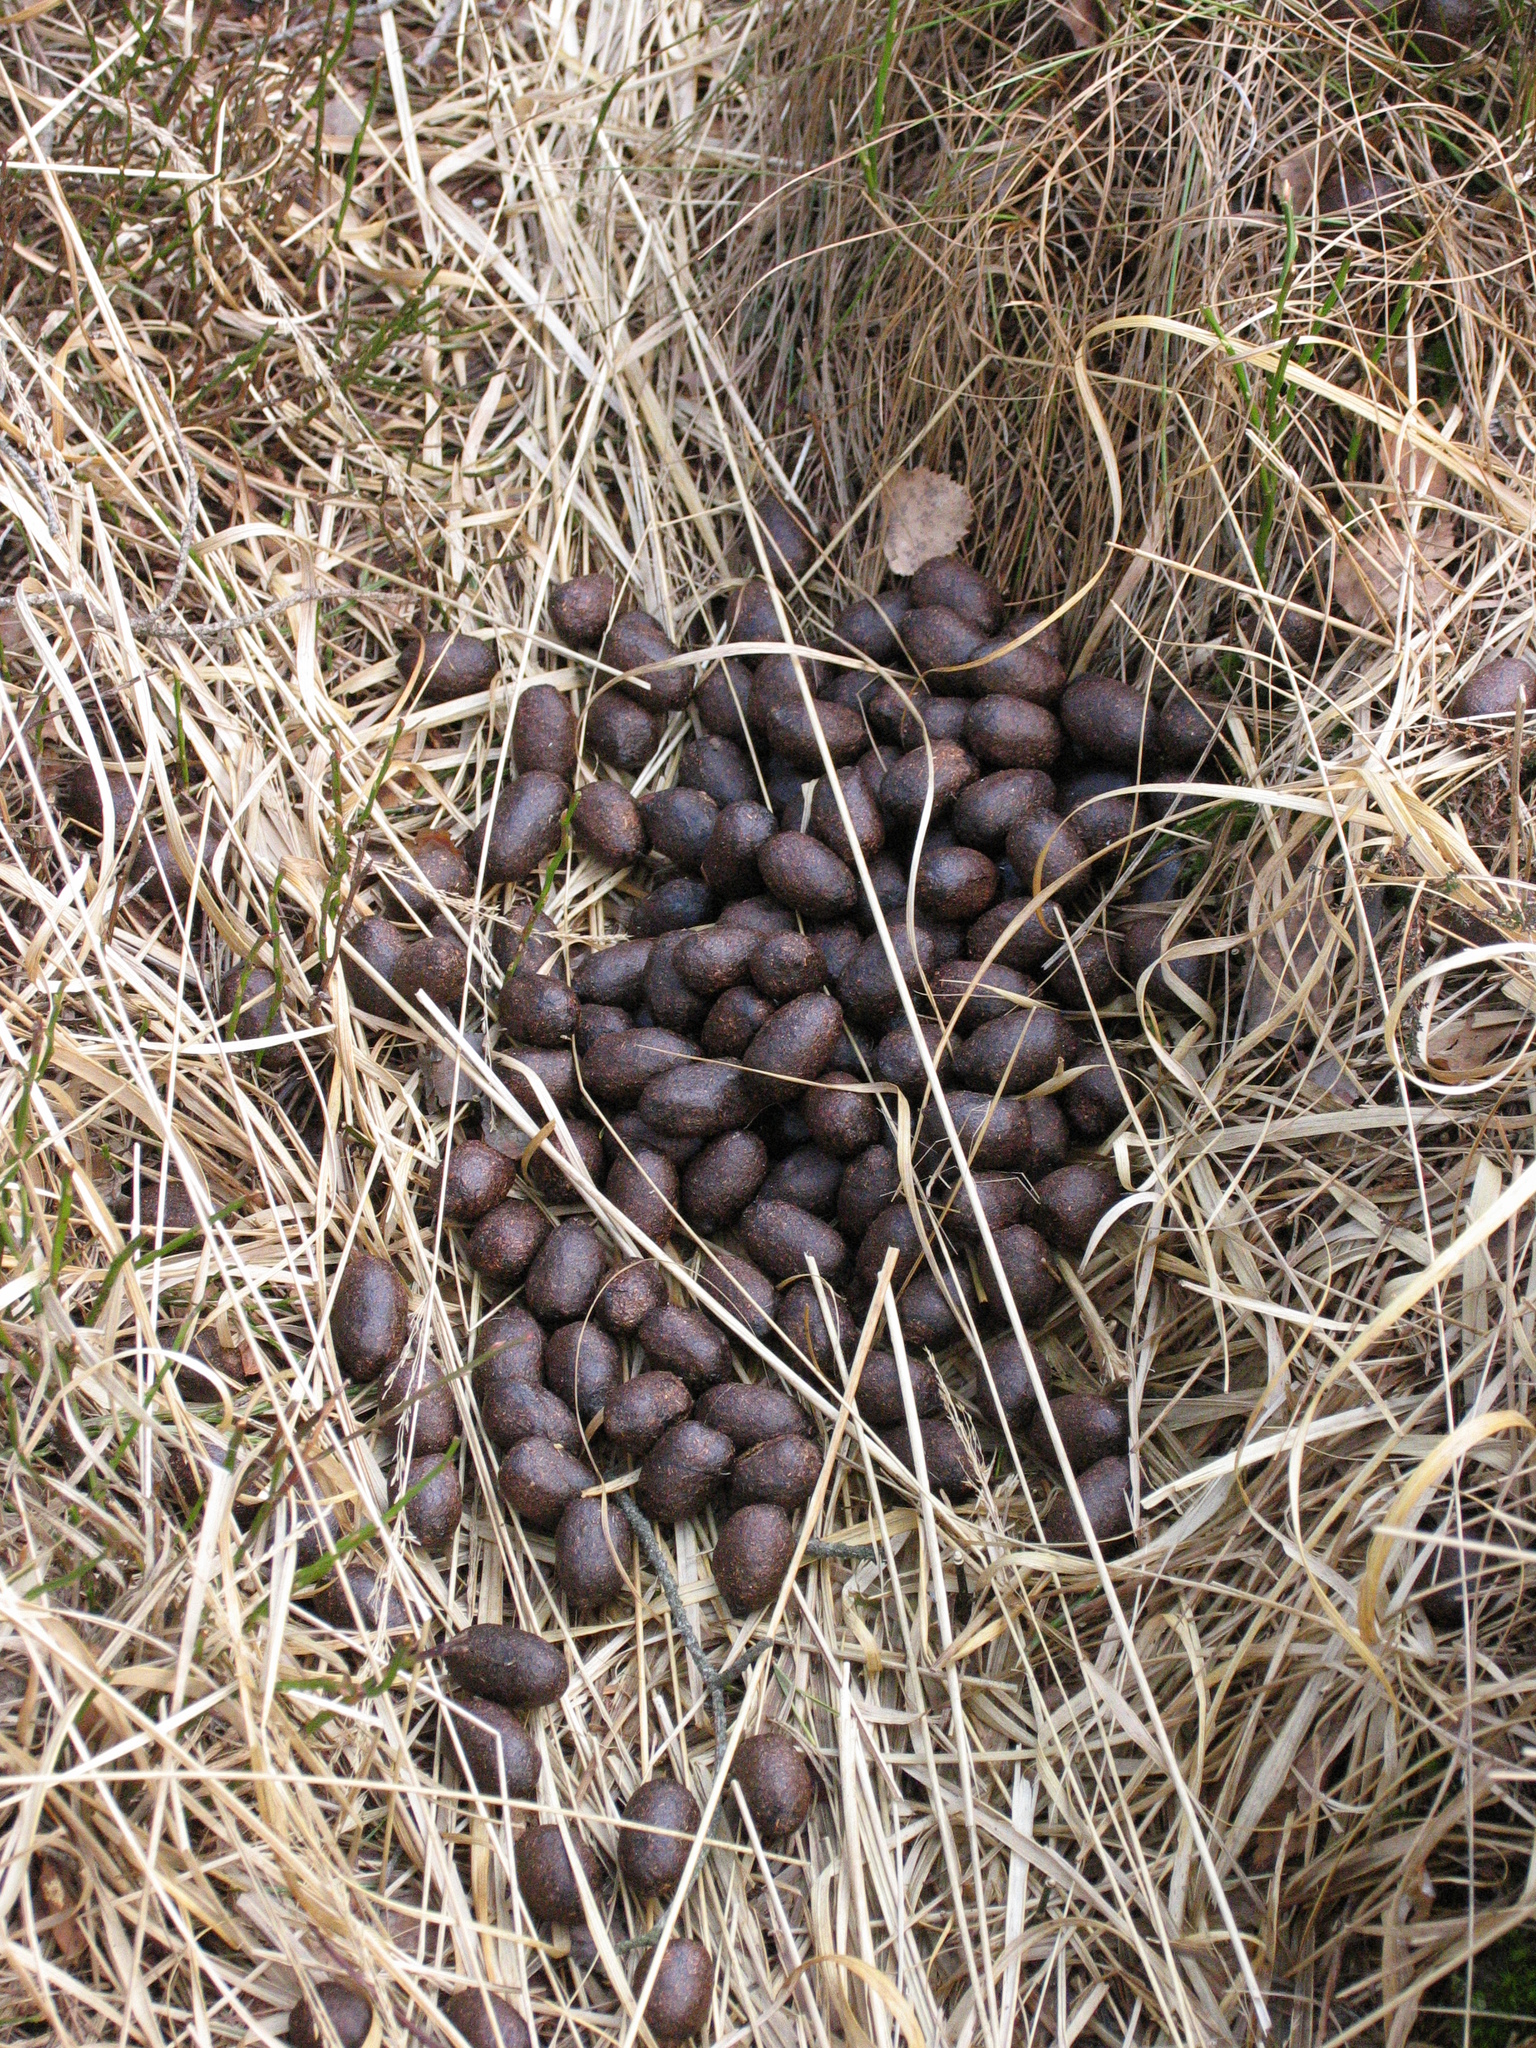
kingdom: Animalia
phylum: Chordata
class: Mammalia
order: Artiodactyla
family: Cervidae
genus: Alces
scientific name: Alces alces
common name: Moose
